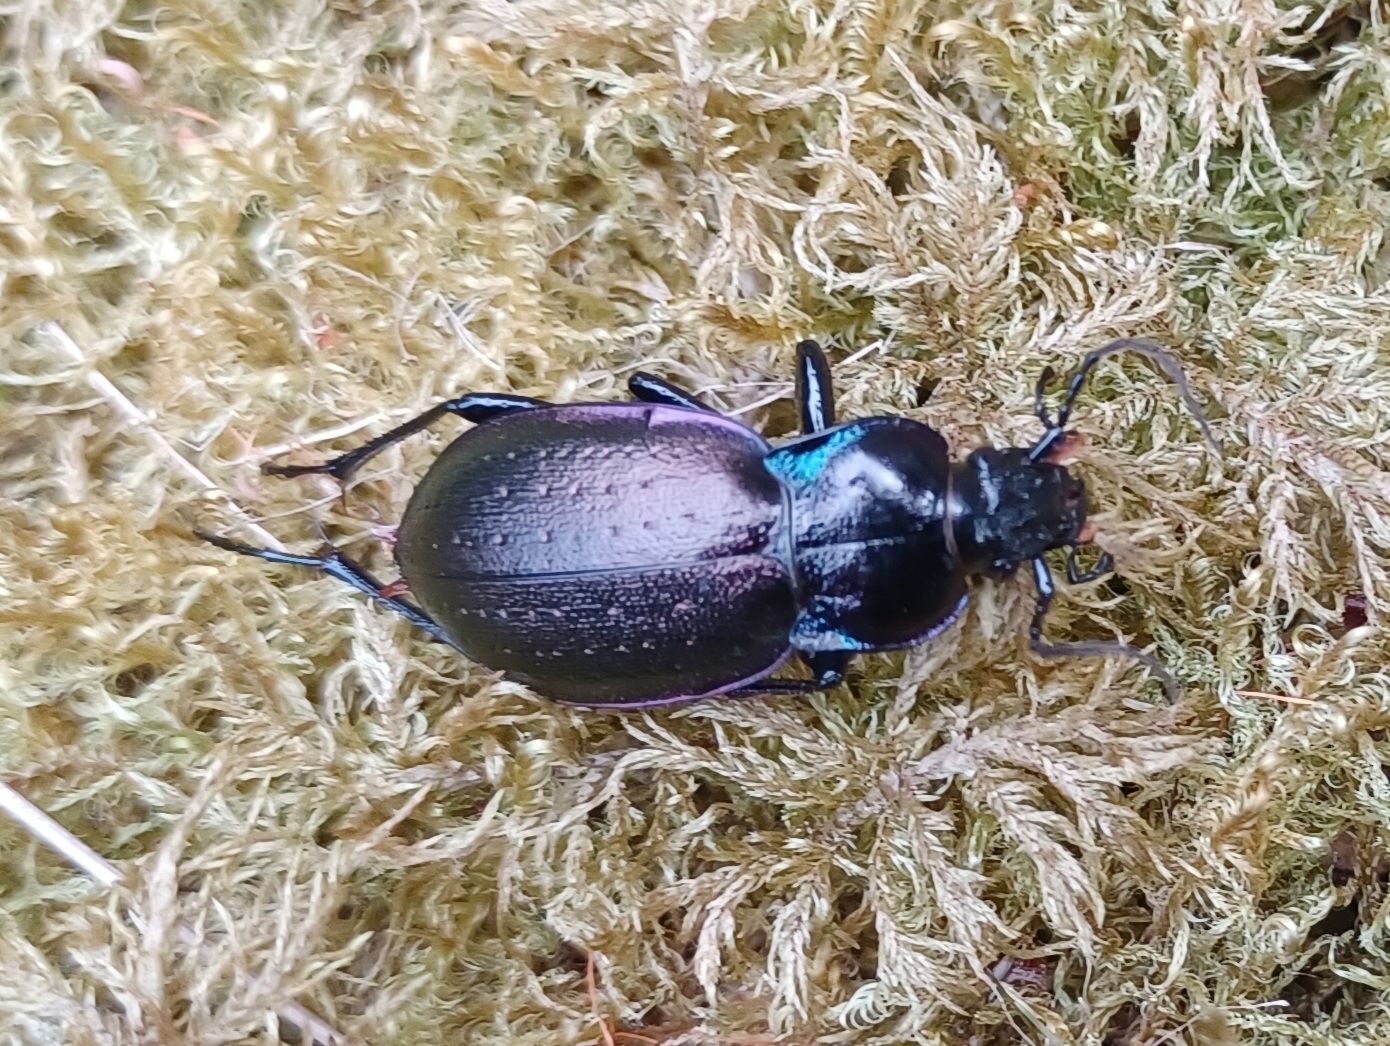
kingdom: Animalia
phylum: Arthropoda
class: Insecta
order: Coleoptera
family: Carabidae
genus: Carabus
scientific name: Carabus nemoralis
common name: European ground beetle
